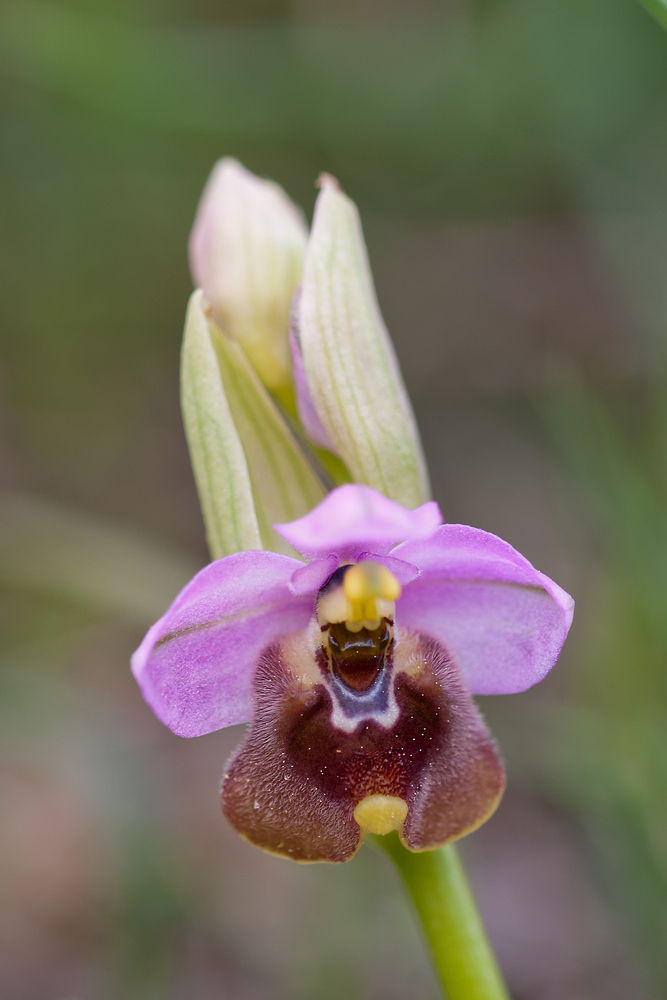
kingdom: Plantae
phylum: Tracheophyta
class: Liliopsida
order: Asparagales
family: Orchidaceae
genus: Ophrys
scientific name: Ophrys tenthredinifera
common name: Sawfly orchid
